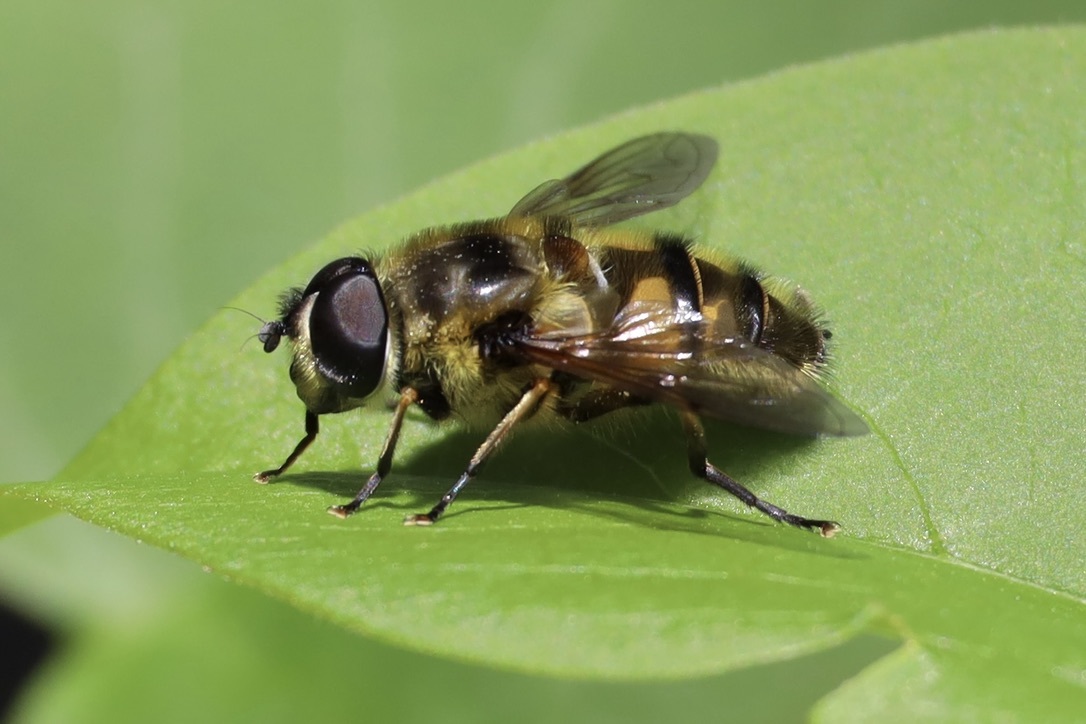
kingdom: Animalia
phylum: Arthropoda
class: Insecta
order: Diptera
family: Syrphidae
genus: Myathropa
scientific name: Myathropa florea
